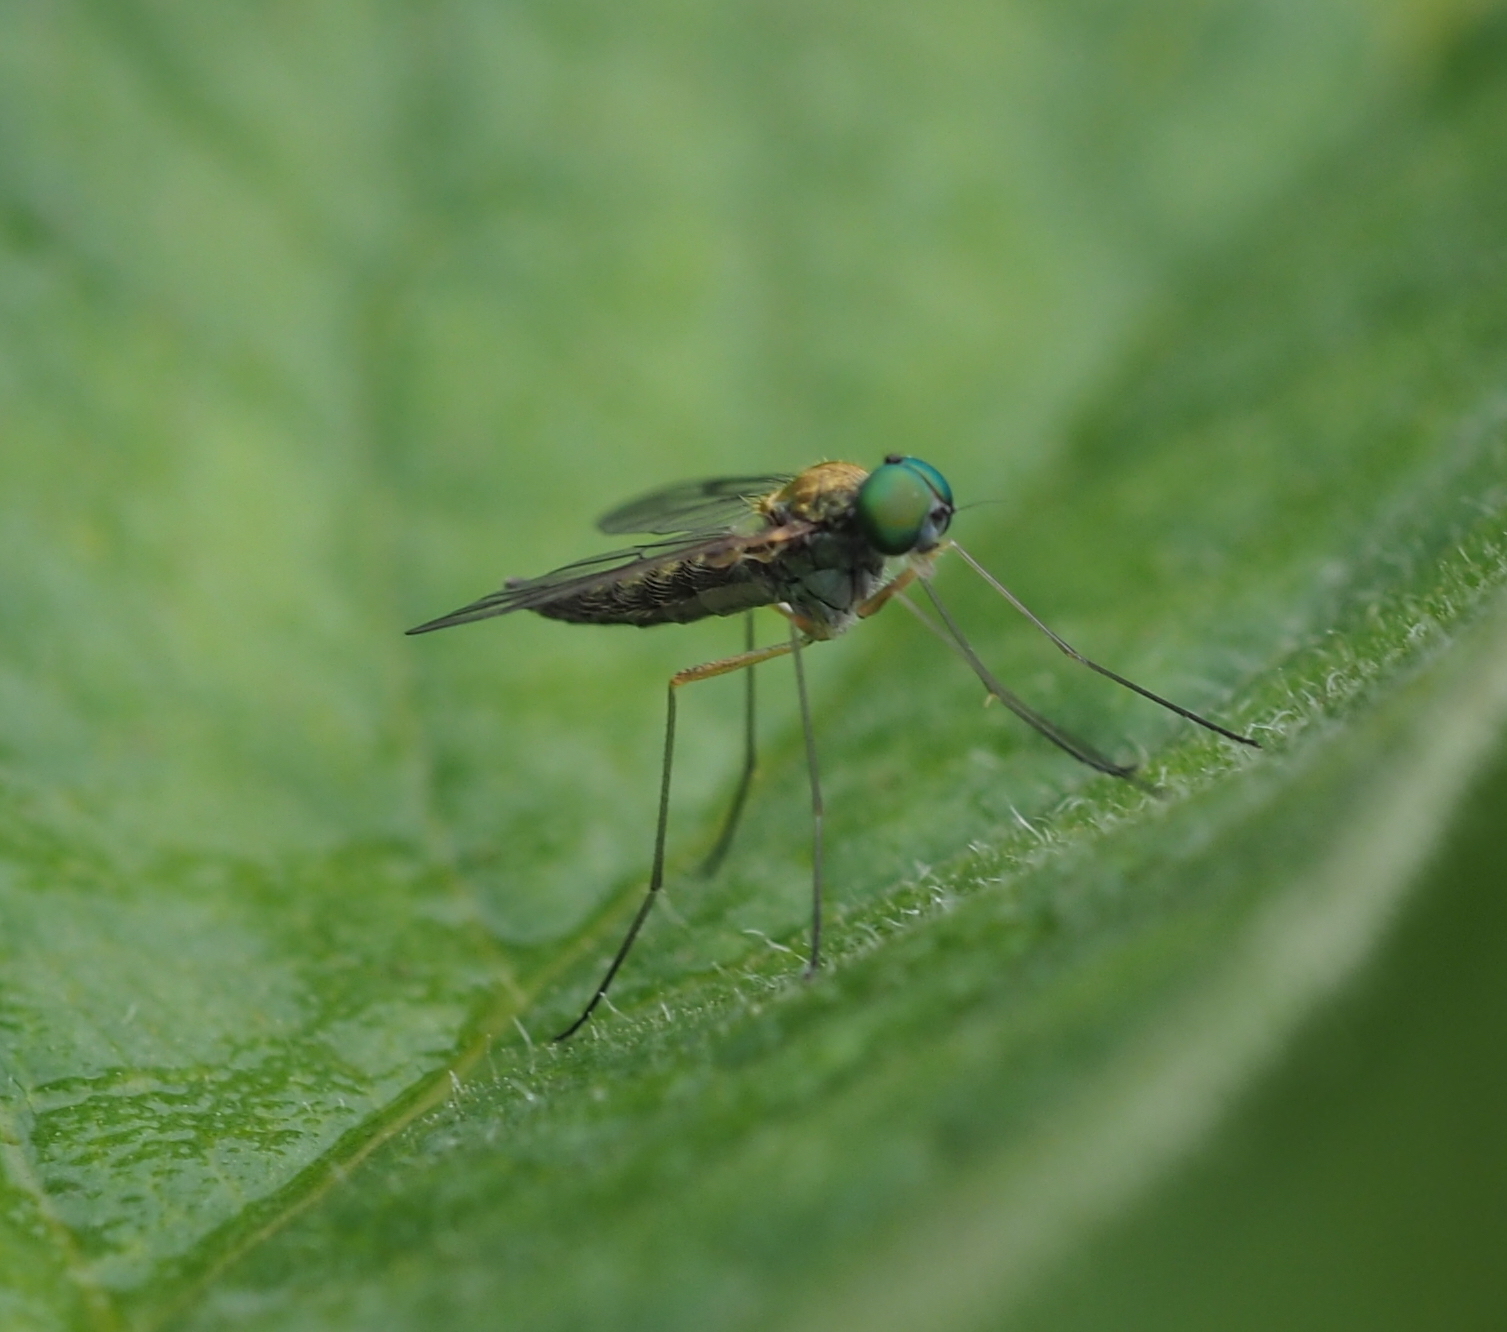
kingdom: Animalia
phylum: Arthropoda
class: Insecta
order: Diptera
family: Rhagionidae
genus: Chrysopilus
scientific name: Chrysopilus asiliformis
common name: Little snipefly
